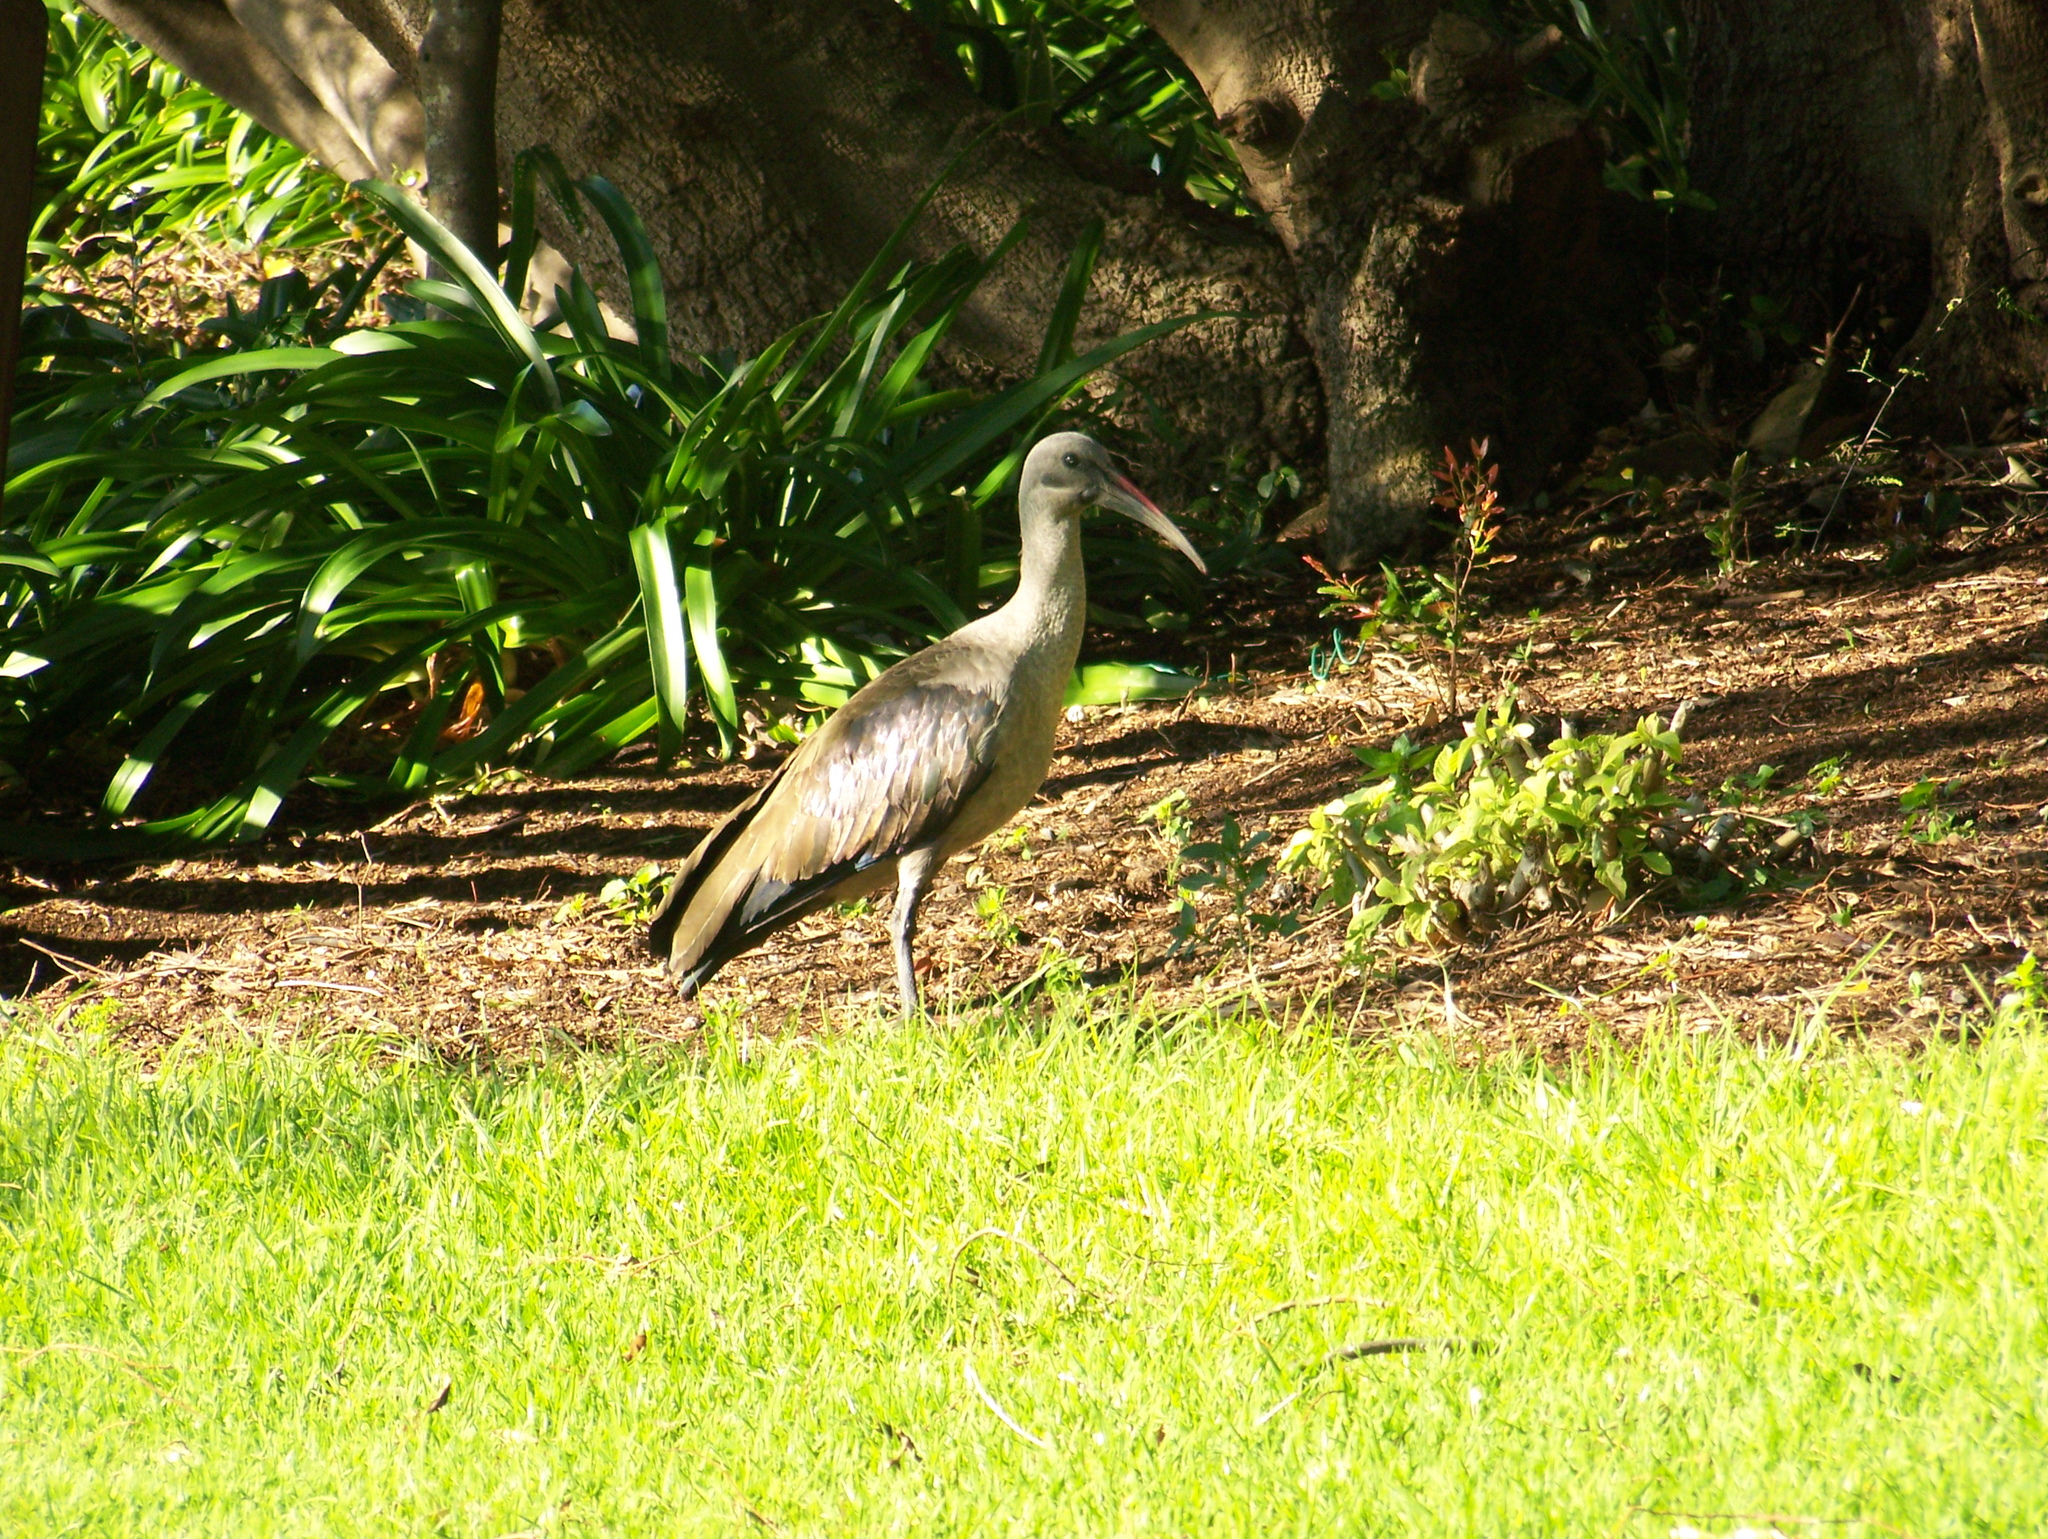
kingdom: Animalia
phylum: Chordata
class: Aves
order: Pelecaniformes
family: Threskiornithidae
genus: Bostrychia
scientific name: Bostrychia hagedash
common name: Hadada ibis
